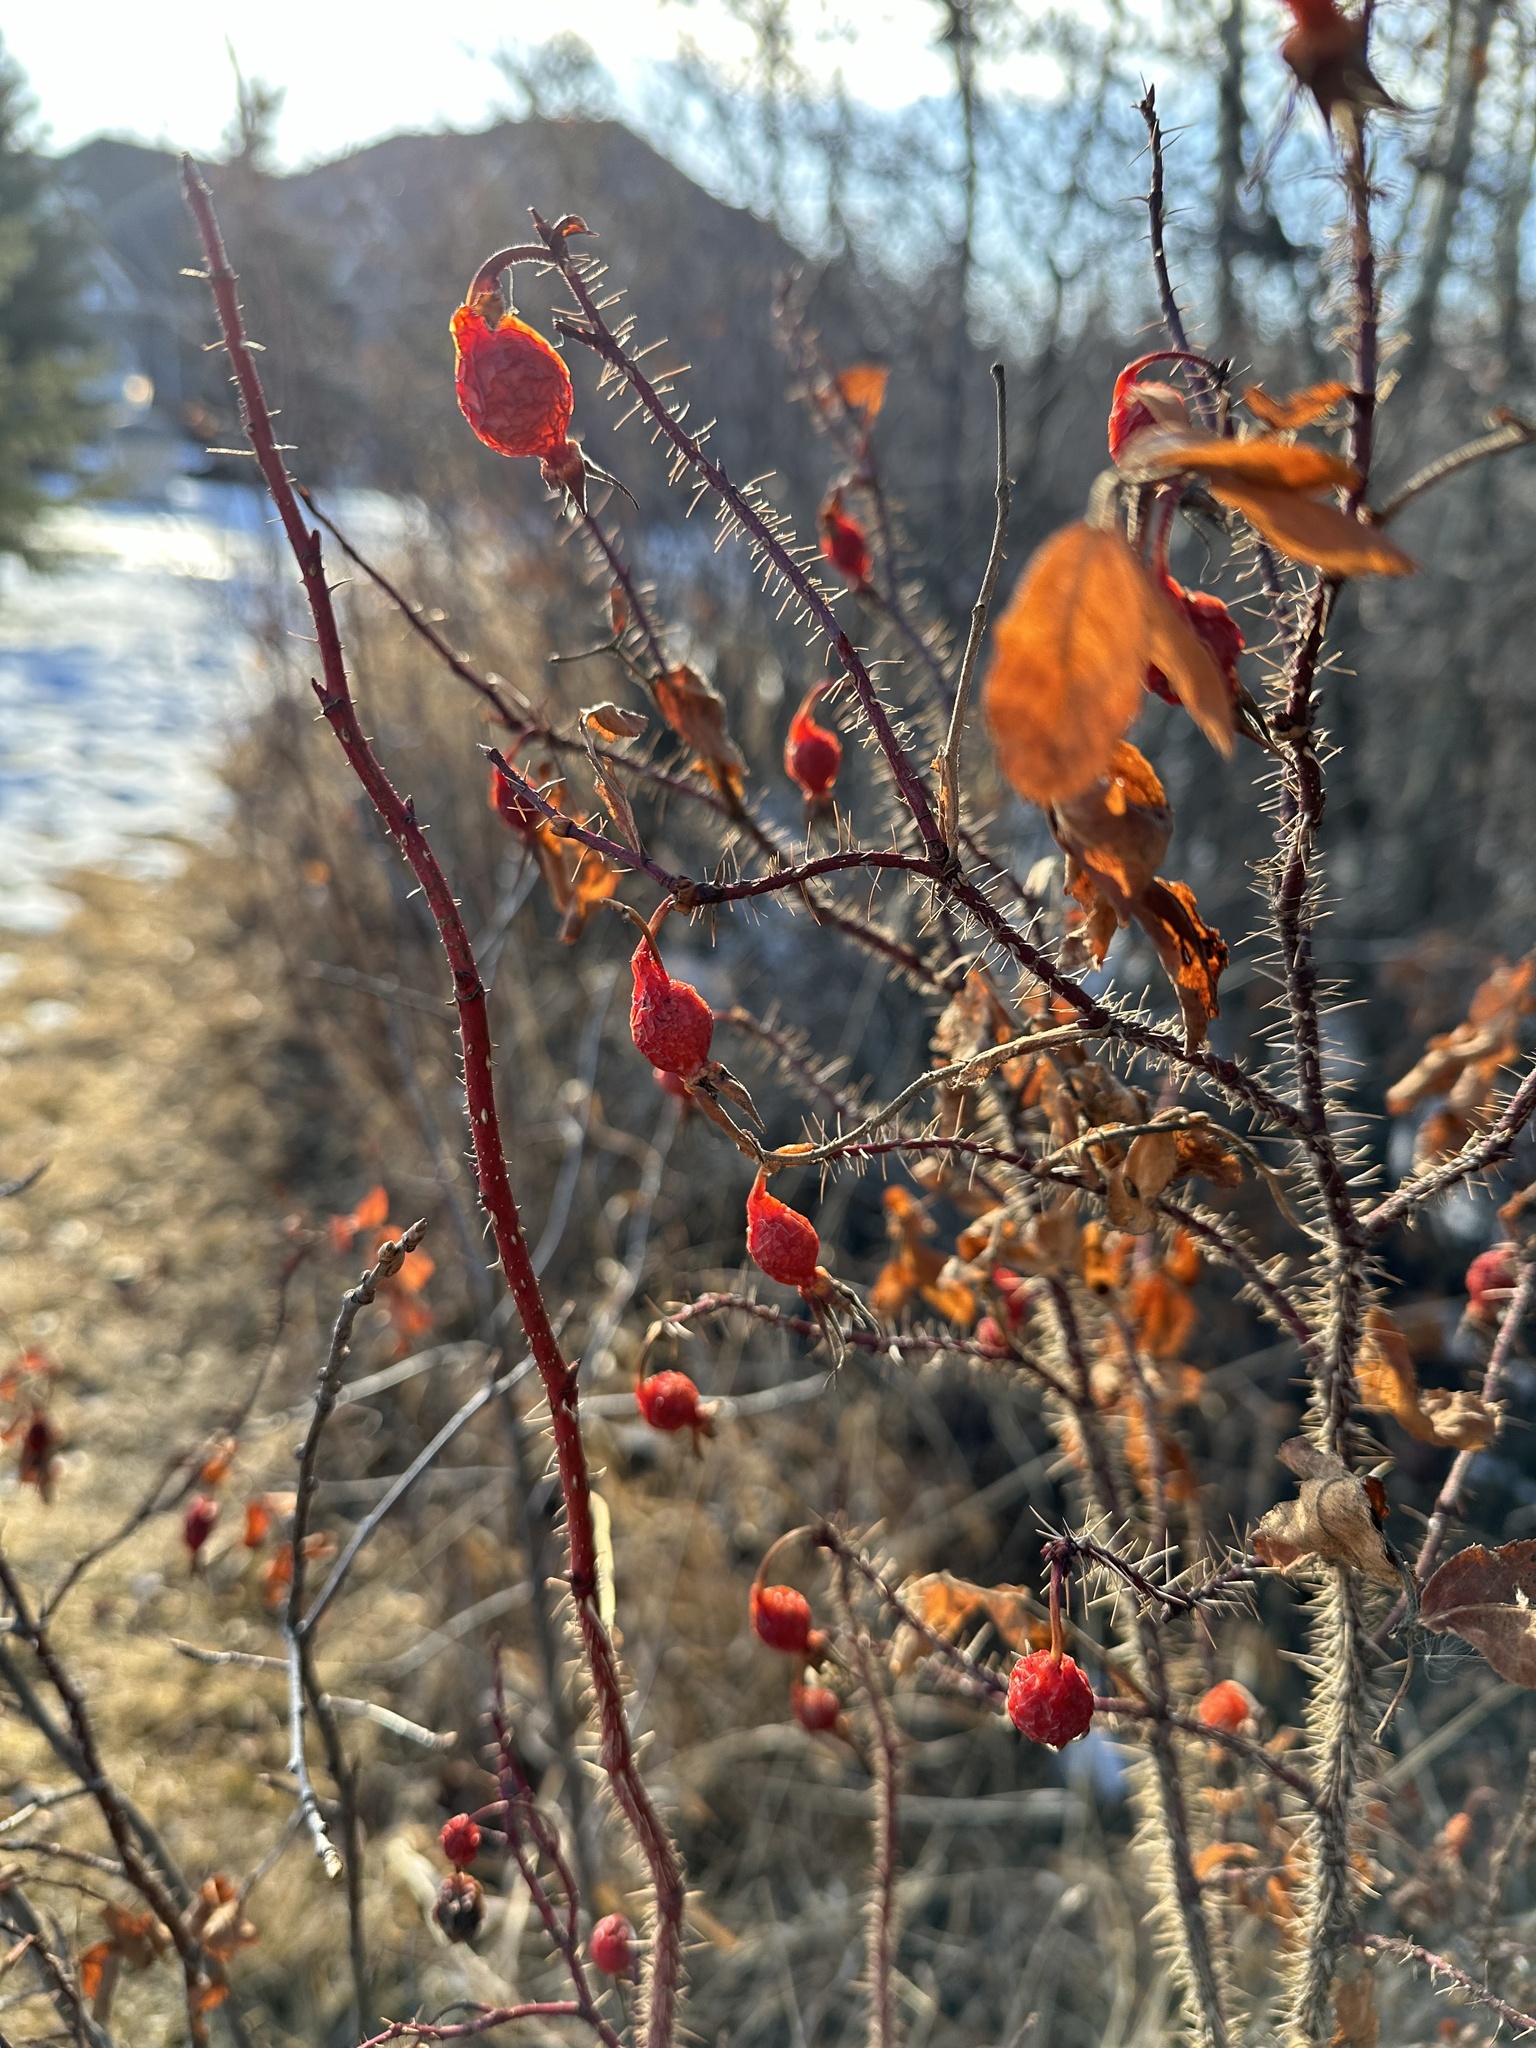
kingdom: Plantae
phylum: Tracheophyta
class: Magnoliopsida
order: Rosales
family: Rosaceae
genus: Rosa
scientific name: Rosa acicularis
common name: Prickly rose
